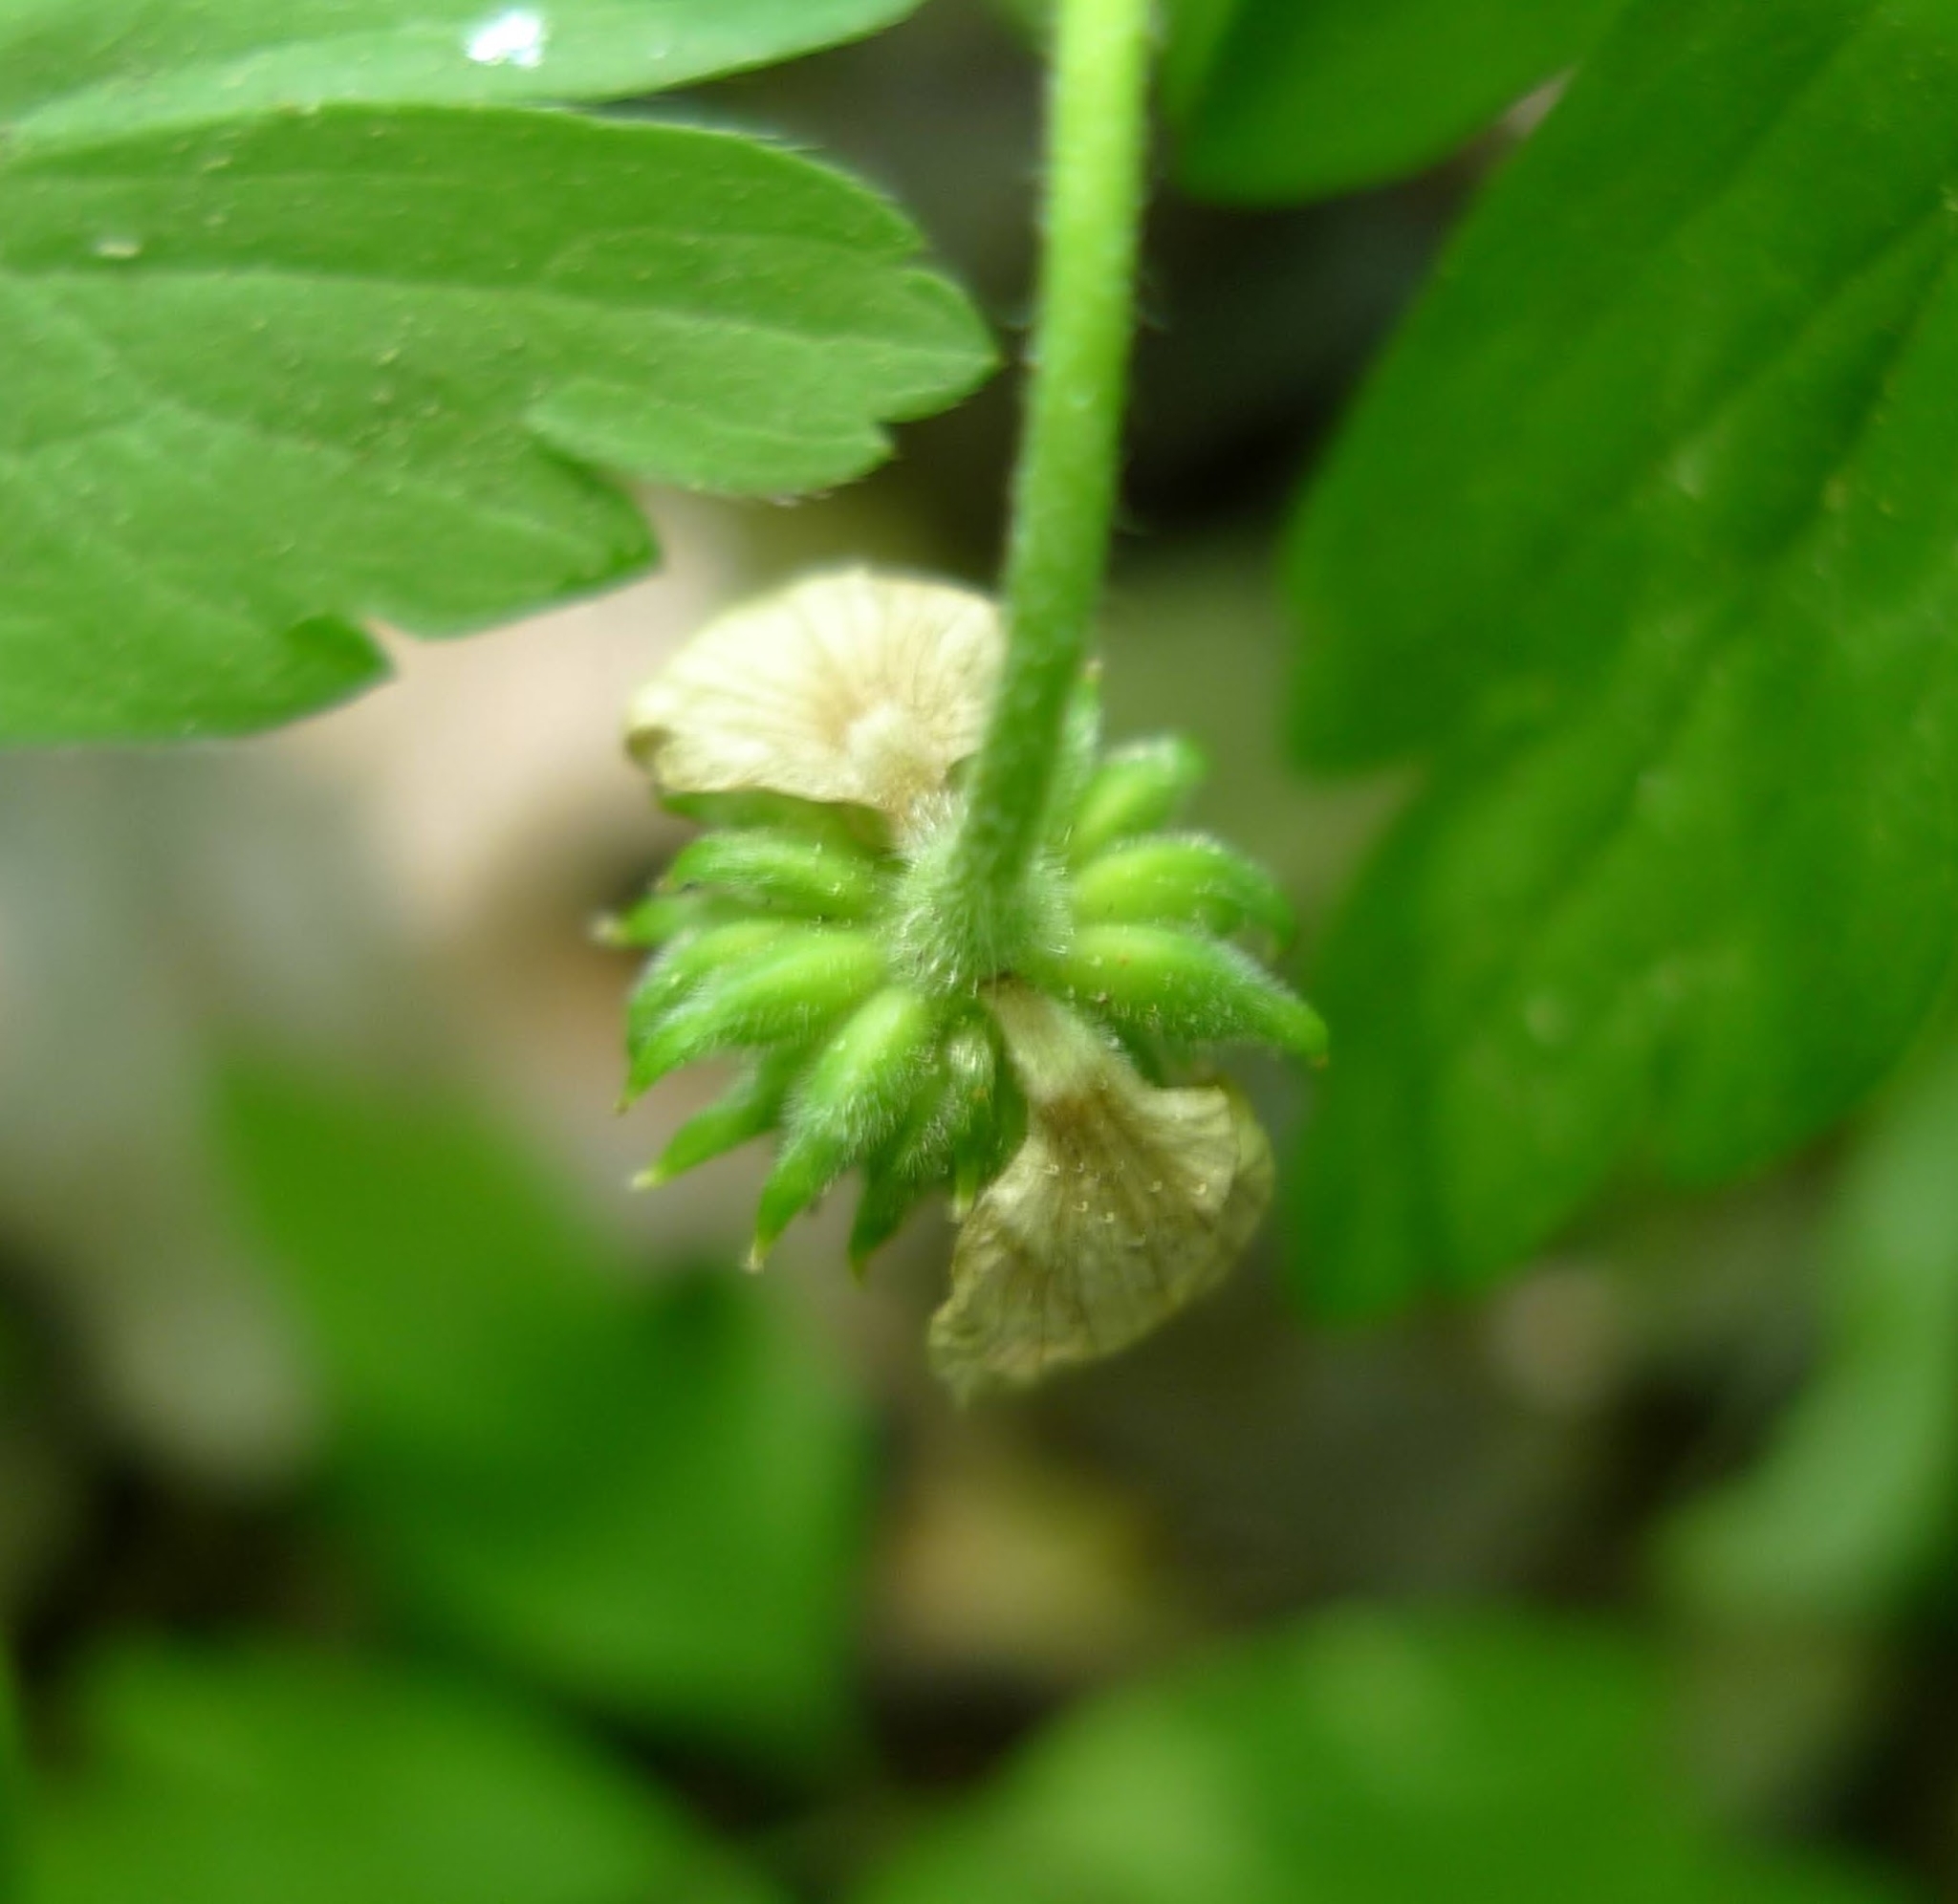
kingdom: Plantae
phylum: Tracheophyta
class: Magnoliopsida
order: Ranunculales
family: Ranunculaceae
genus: Anemone
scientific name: Anemone nemorosa
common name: Wood anemone
